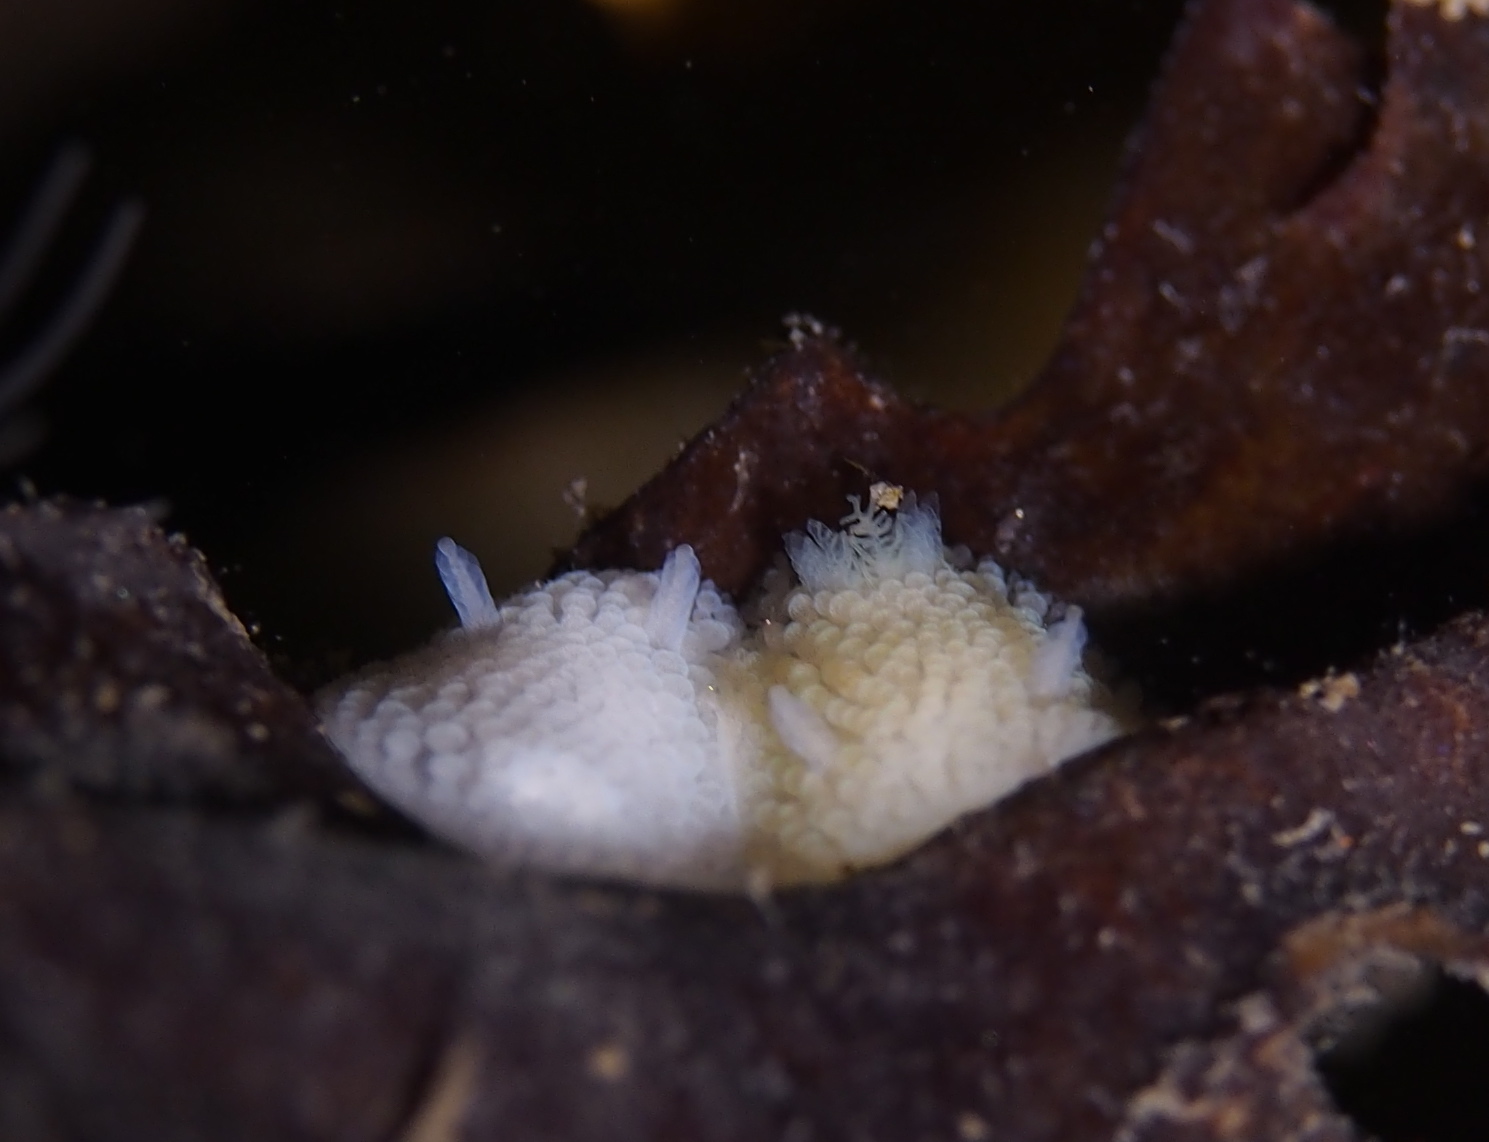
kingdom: Animalia
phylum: Mollusca
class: Gastropoda
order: Nudibranchia
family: Onchidorididae
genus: Onchidoris
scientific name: Onchidoris muricata
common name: Rough doris
